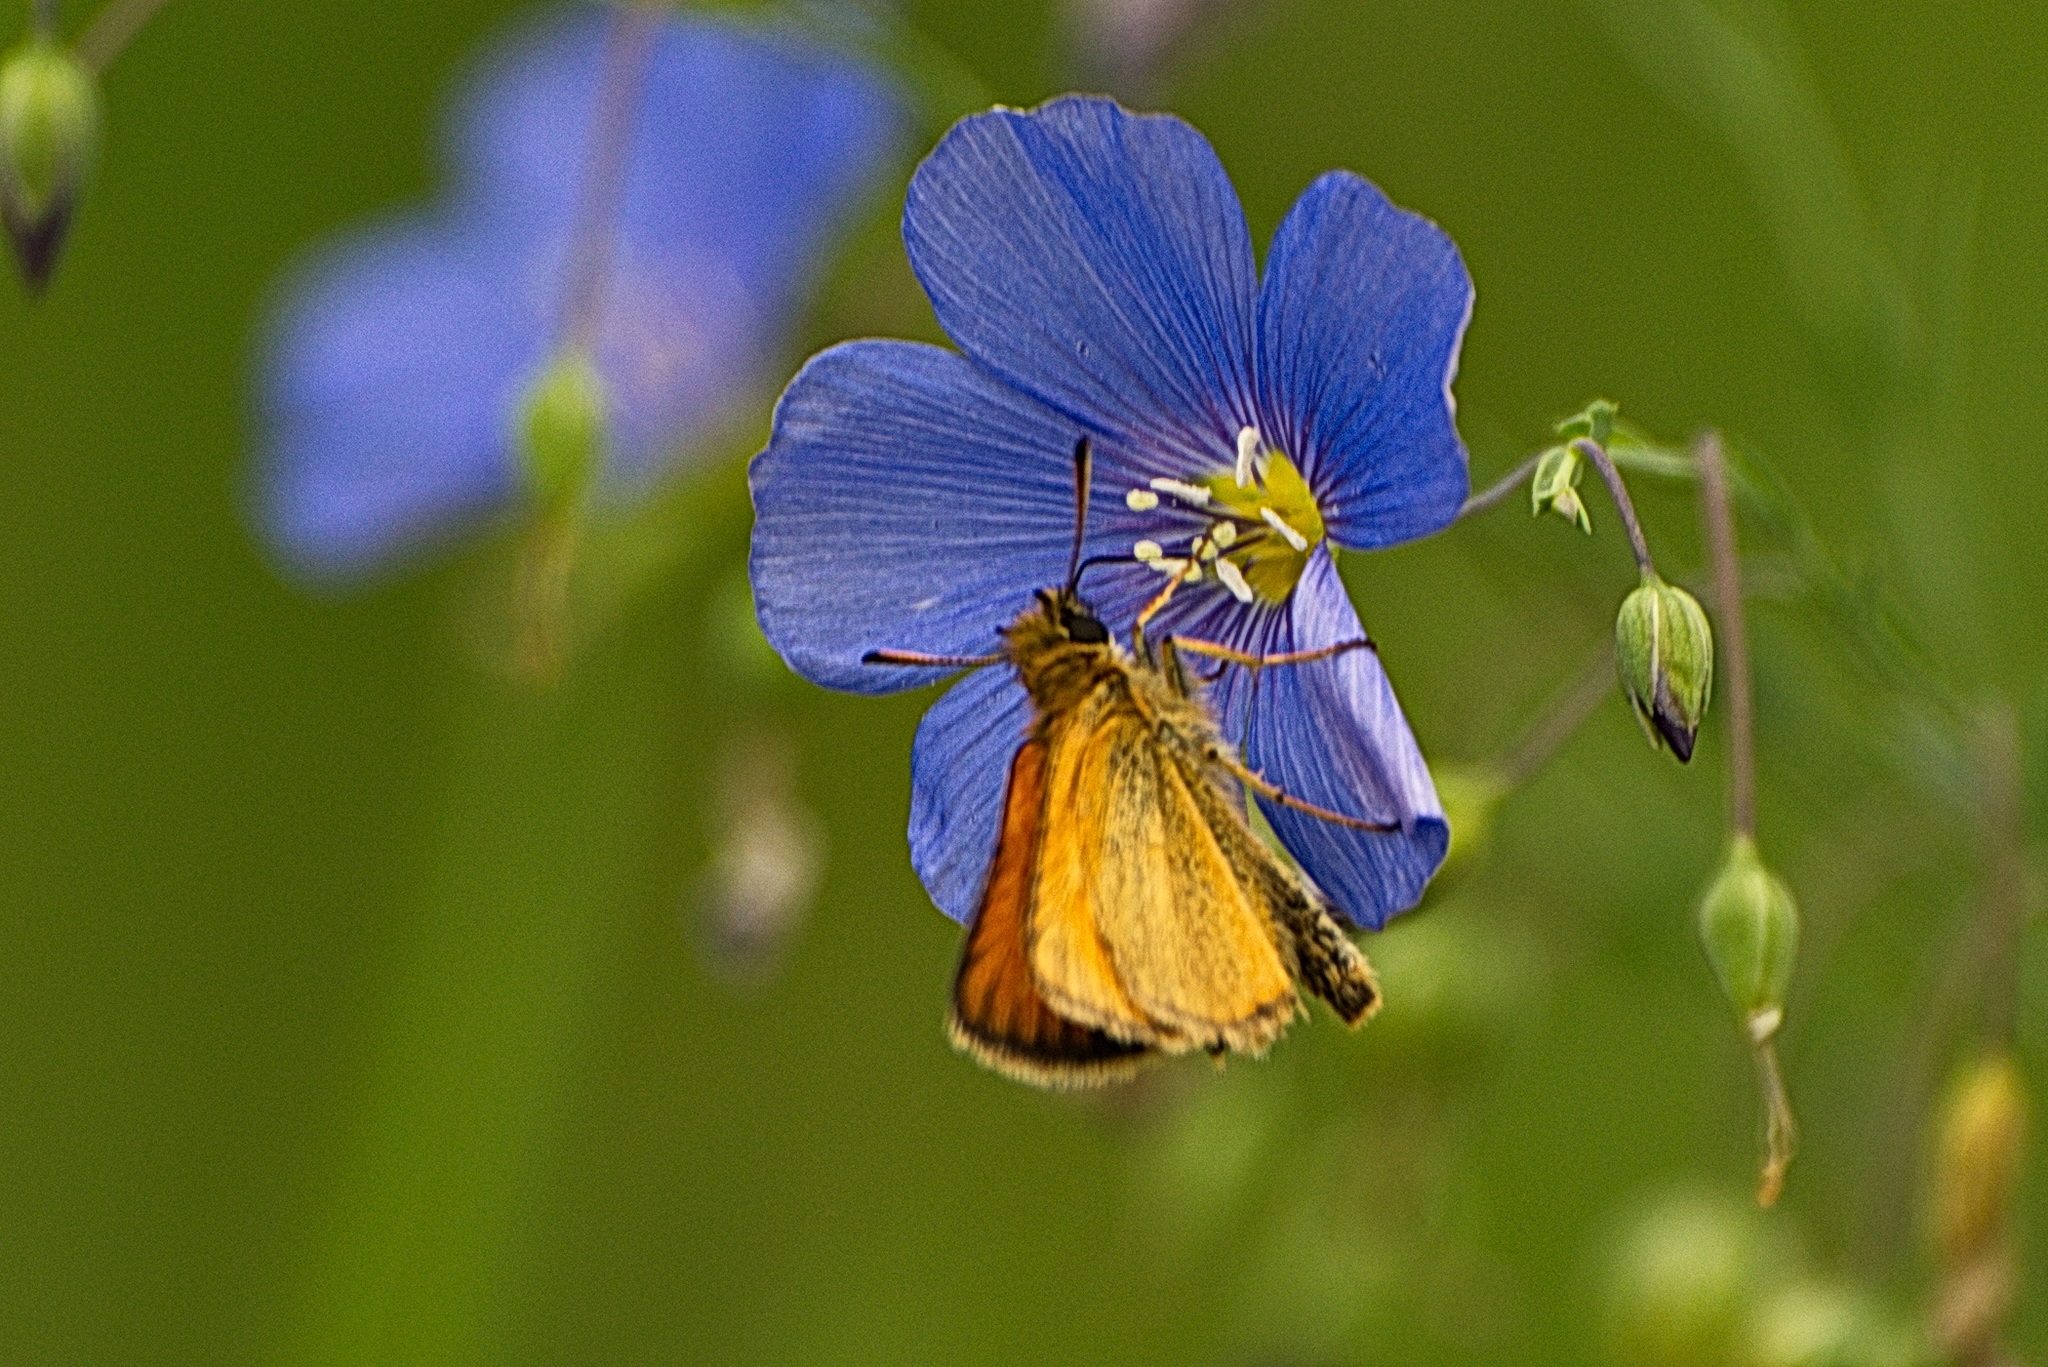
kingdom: Animalia
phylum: Arthropoda
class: Insecta
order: Lepidoptera
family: Hesperiidae
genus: Thymelicus
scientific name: Thymelicus lineola
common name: Essex skipper
